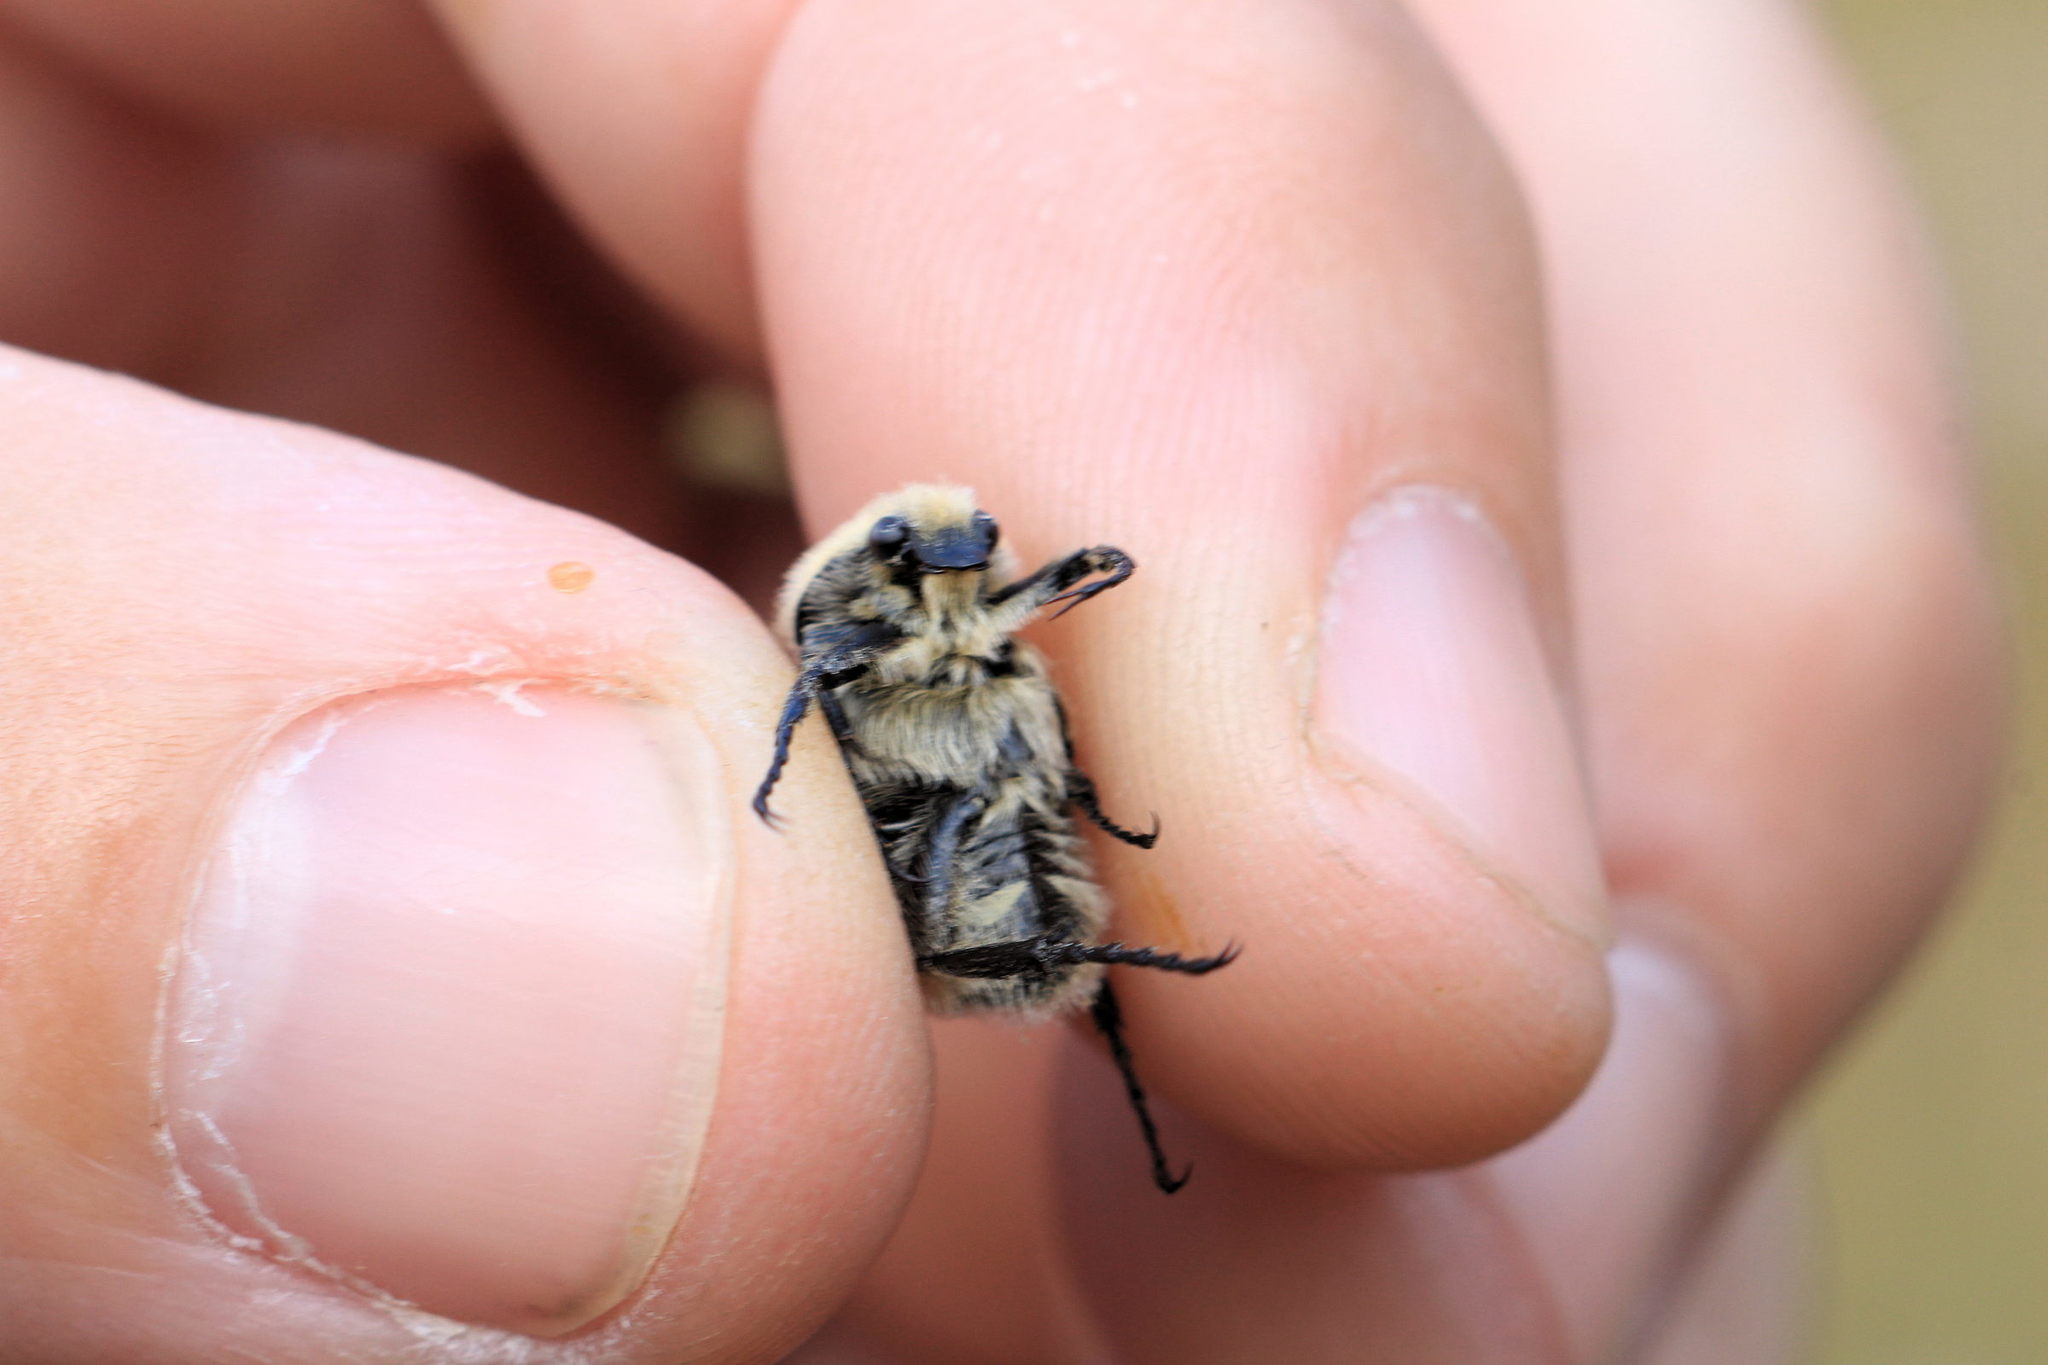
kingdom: Animalia
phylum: Arthropoda
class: Insecta
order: Coleoptera
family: Scarabaeidae
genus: Trichius
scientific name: Trichius gallicus
